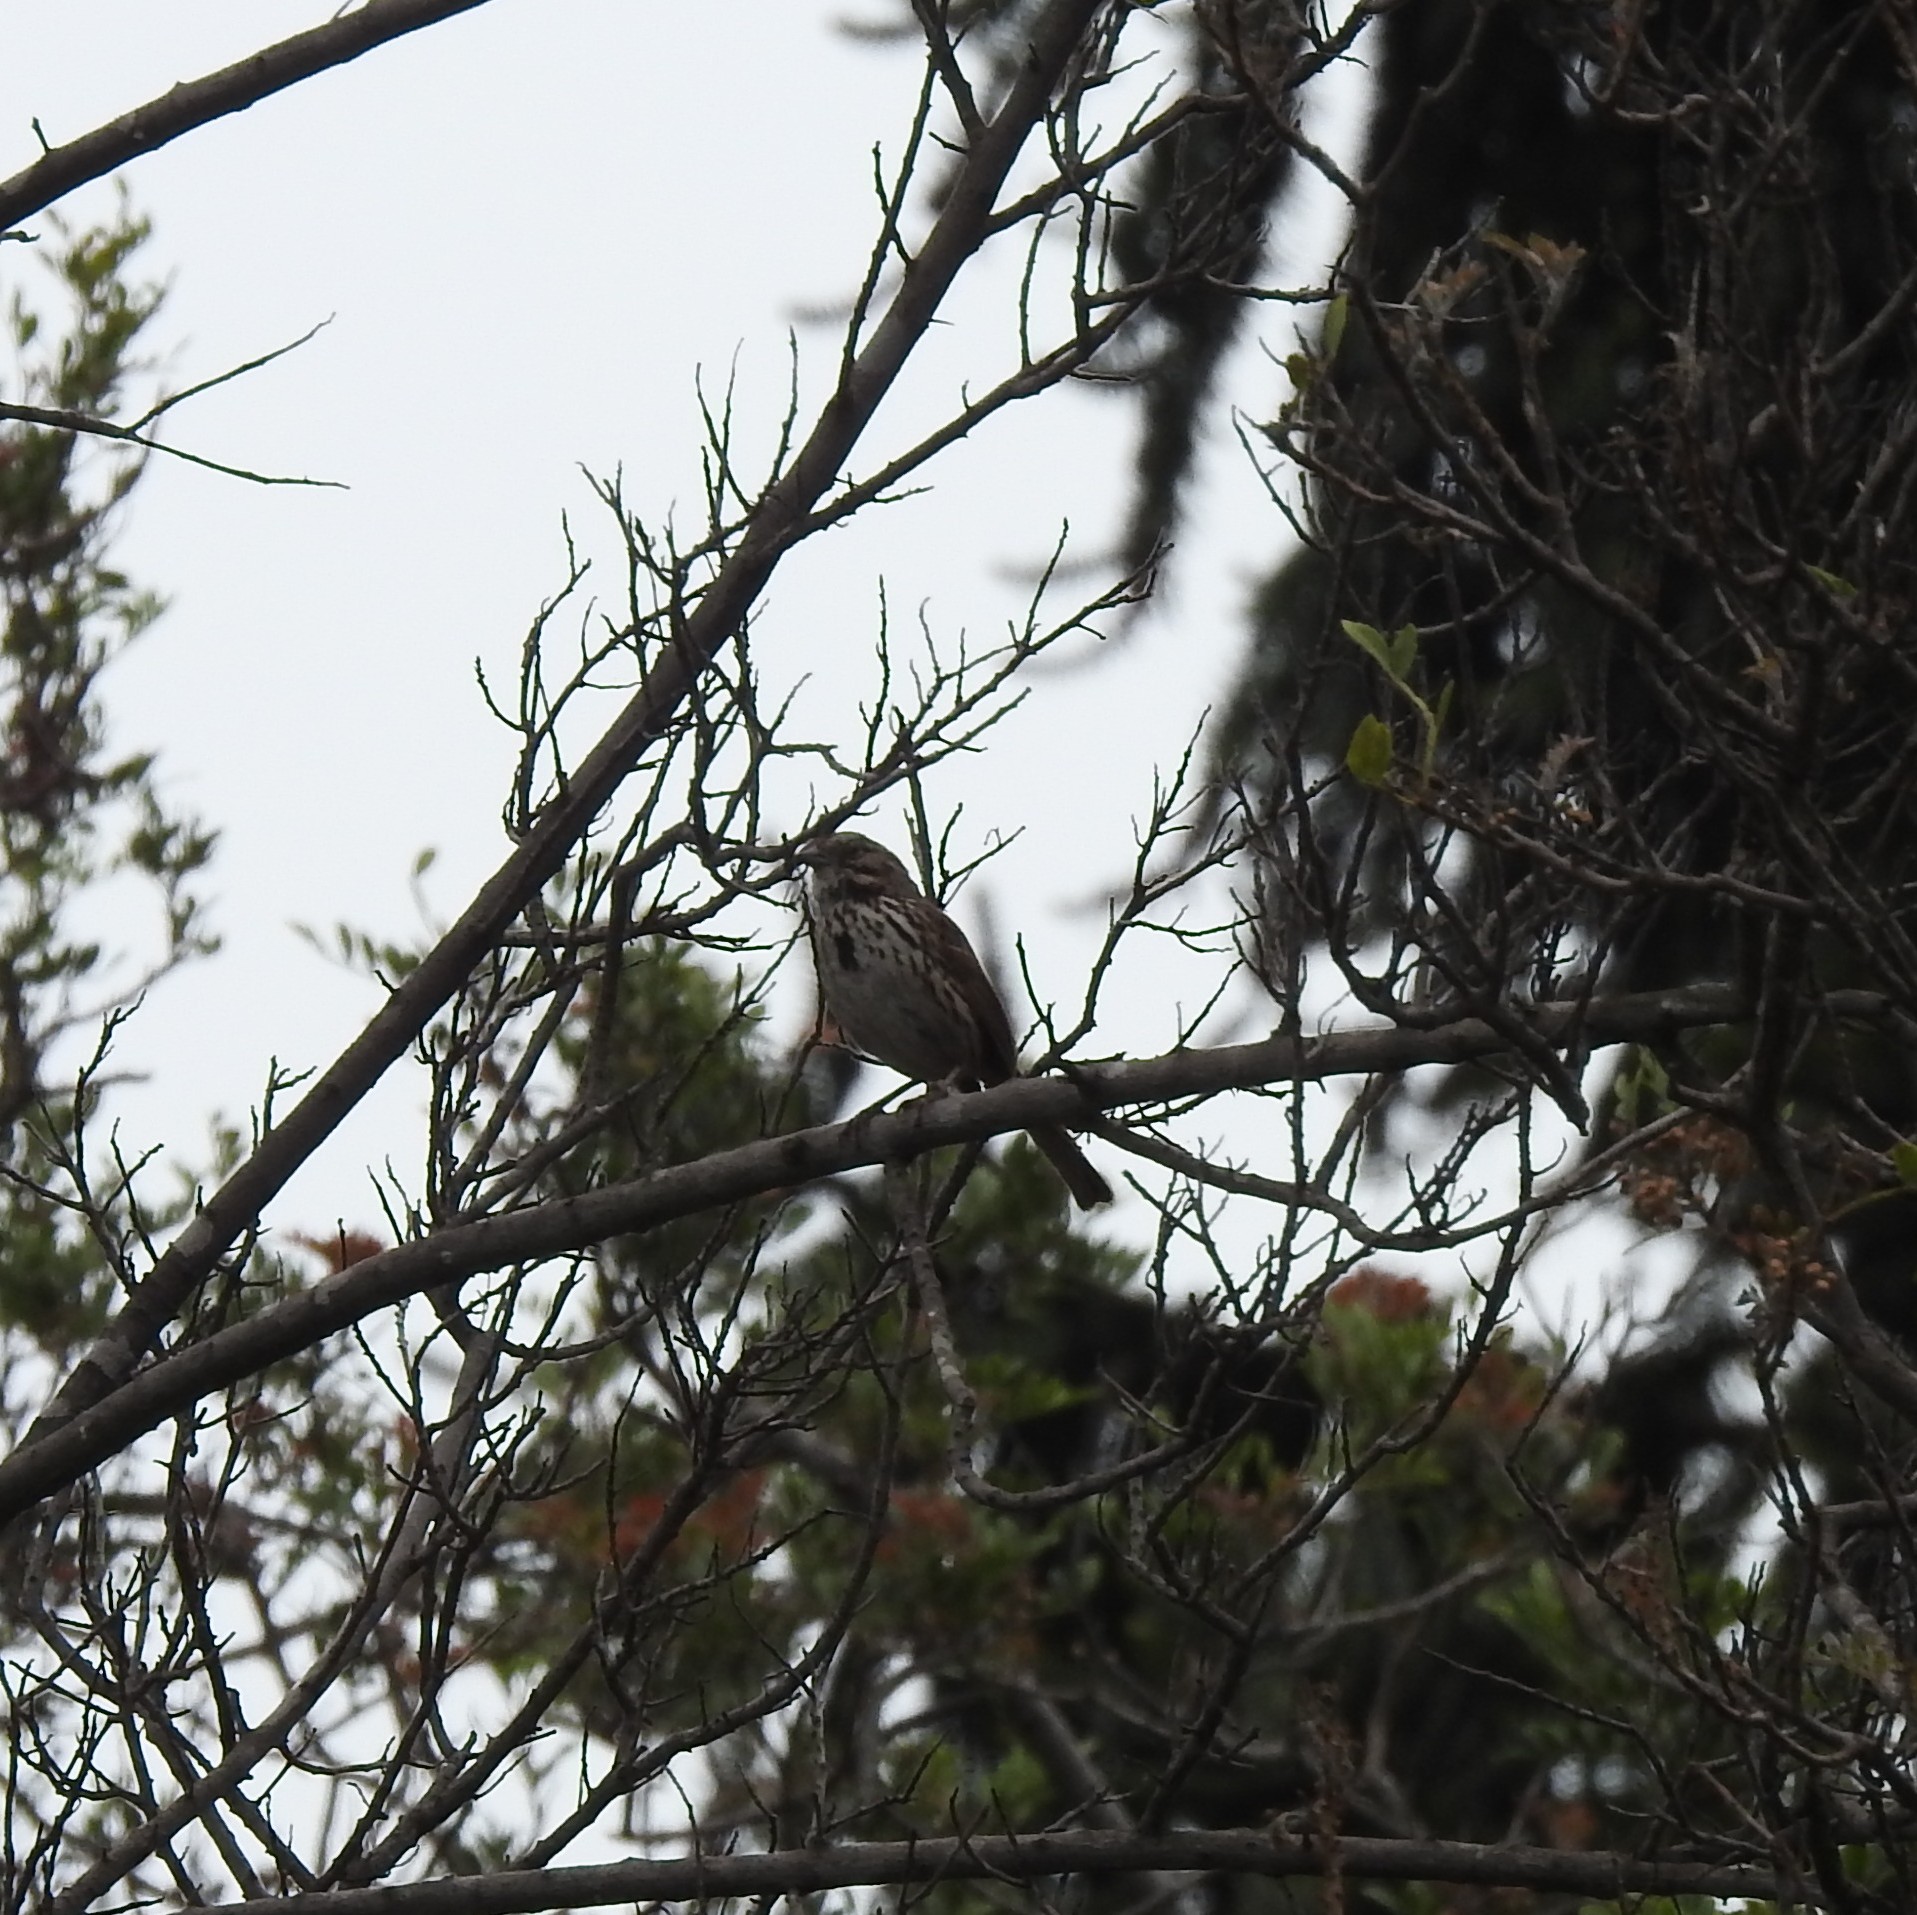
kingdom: Animalia
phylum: Chordata
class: Aves
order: Passeriformes
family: Passerellidae
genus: Melospiza
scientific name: Melospiza melodia
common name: Song sparrow
